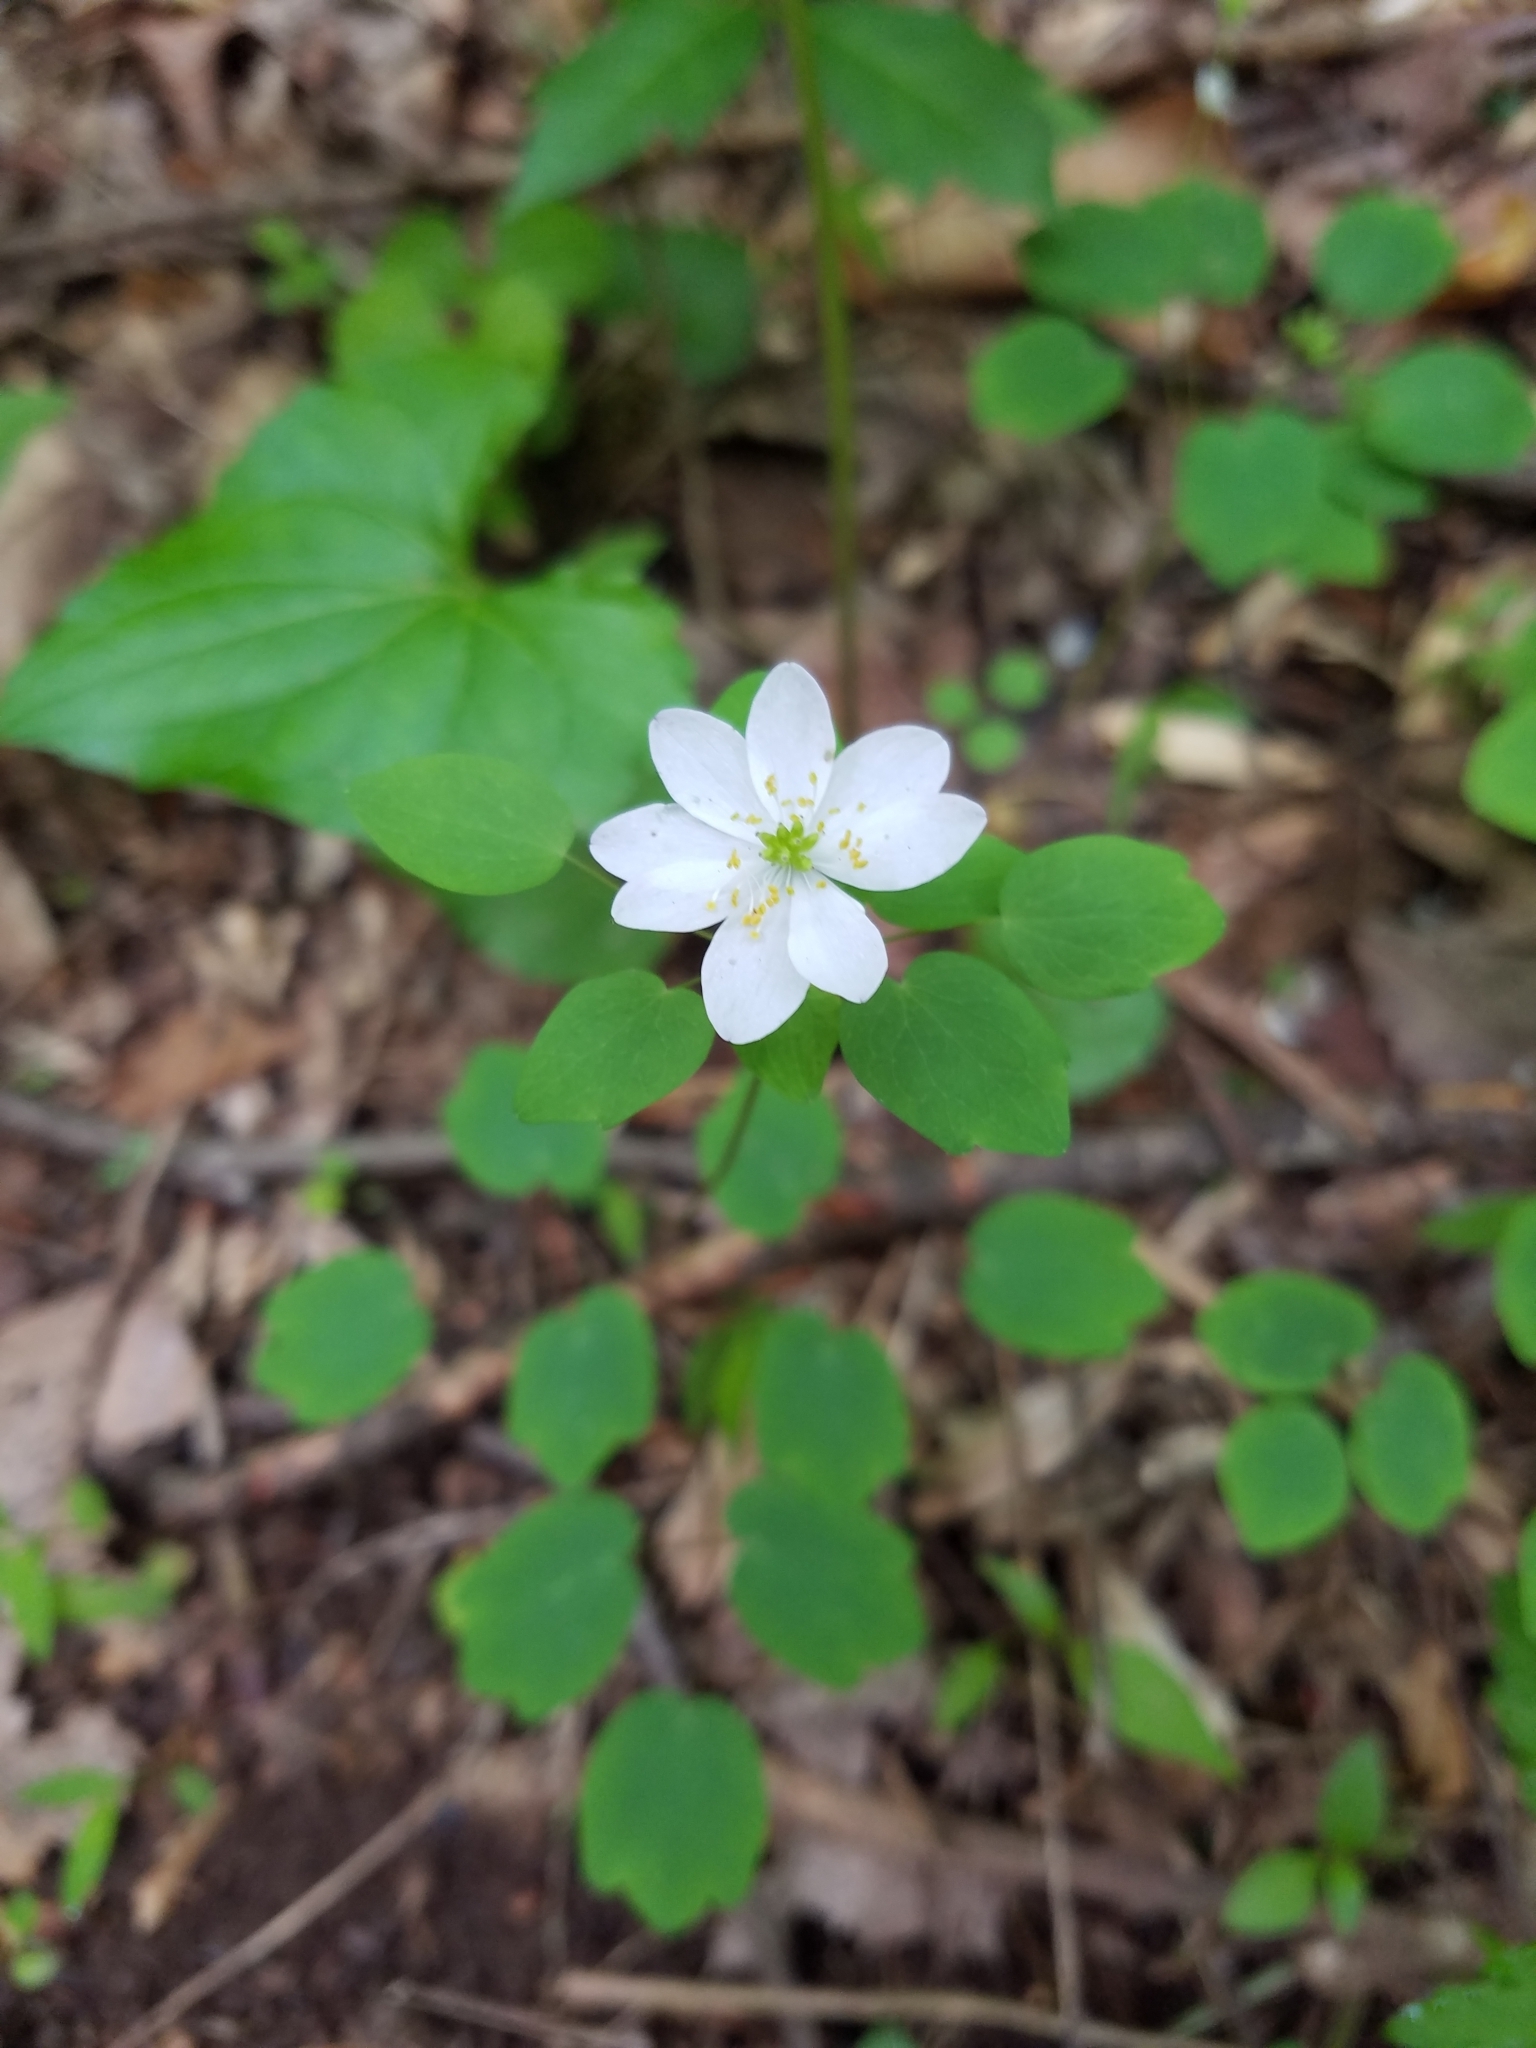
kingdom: Plantae
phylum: Tracheophyta
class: Magnoliopsida
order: Ranunculales
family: Ranunculaceae
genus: Thalictrum
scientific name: Thalictrum thalictroides
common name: Rue-anemone
